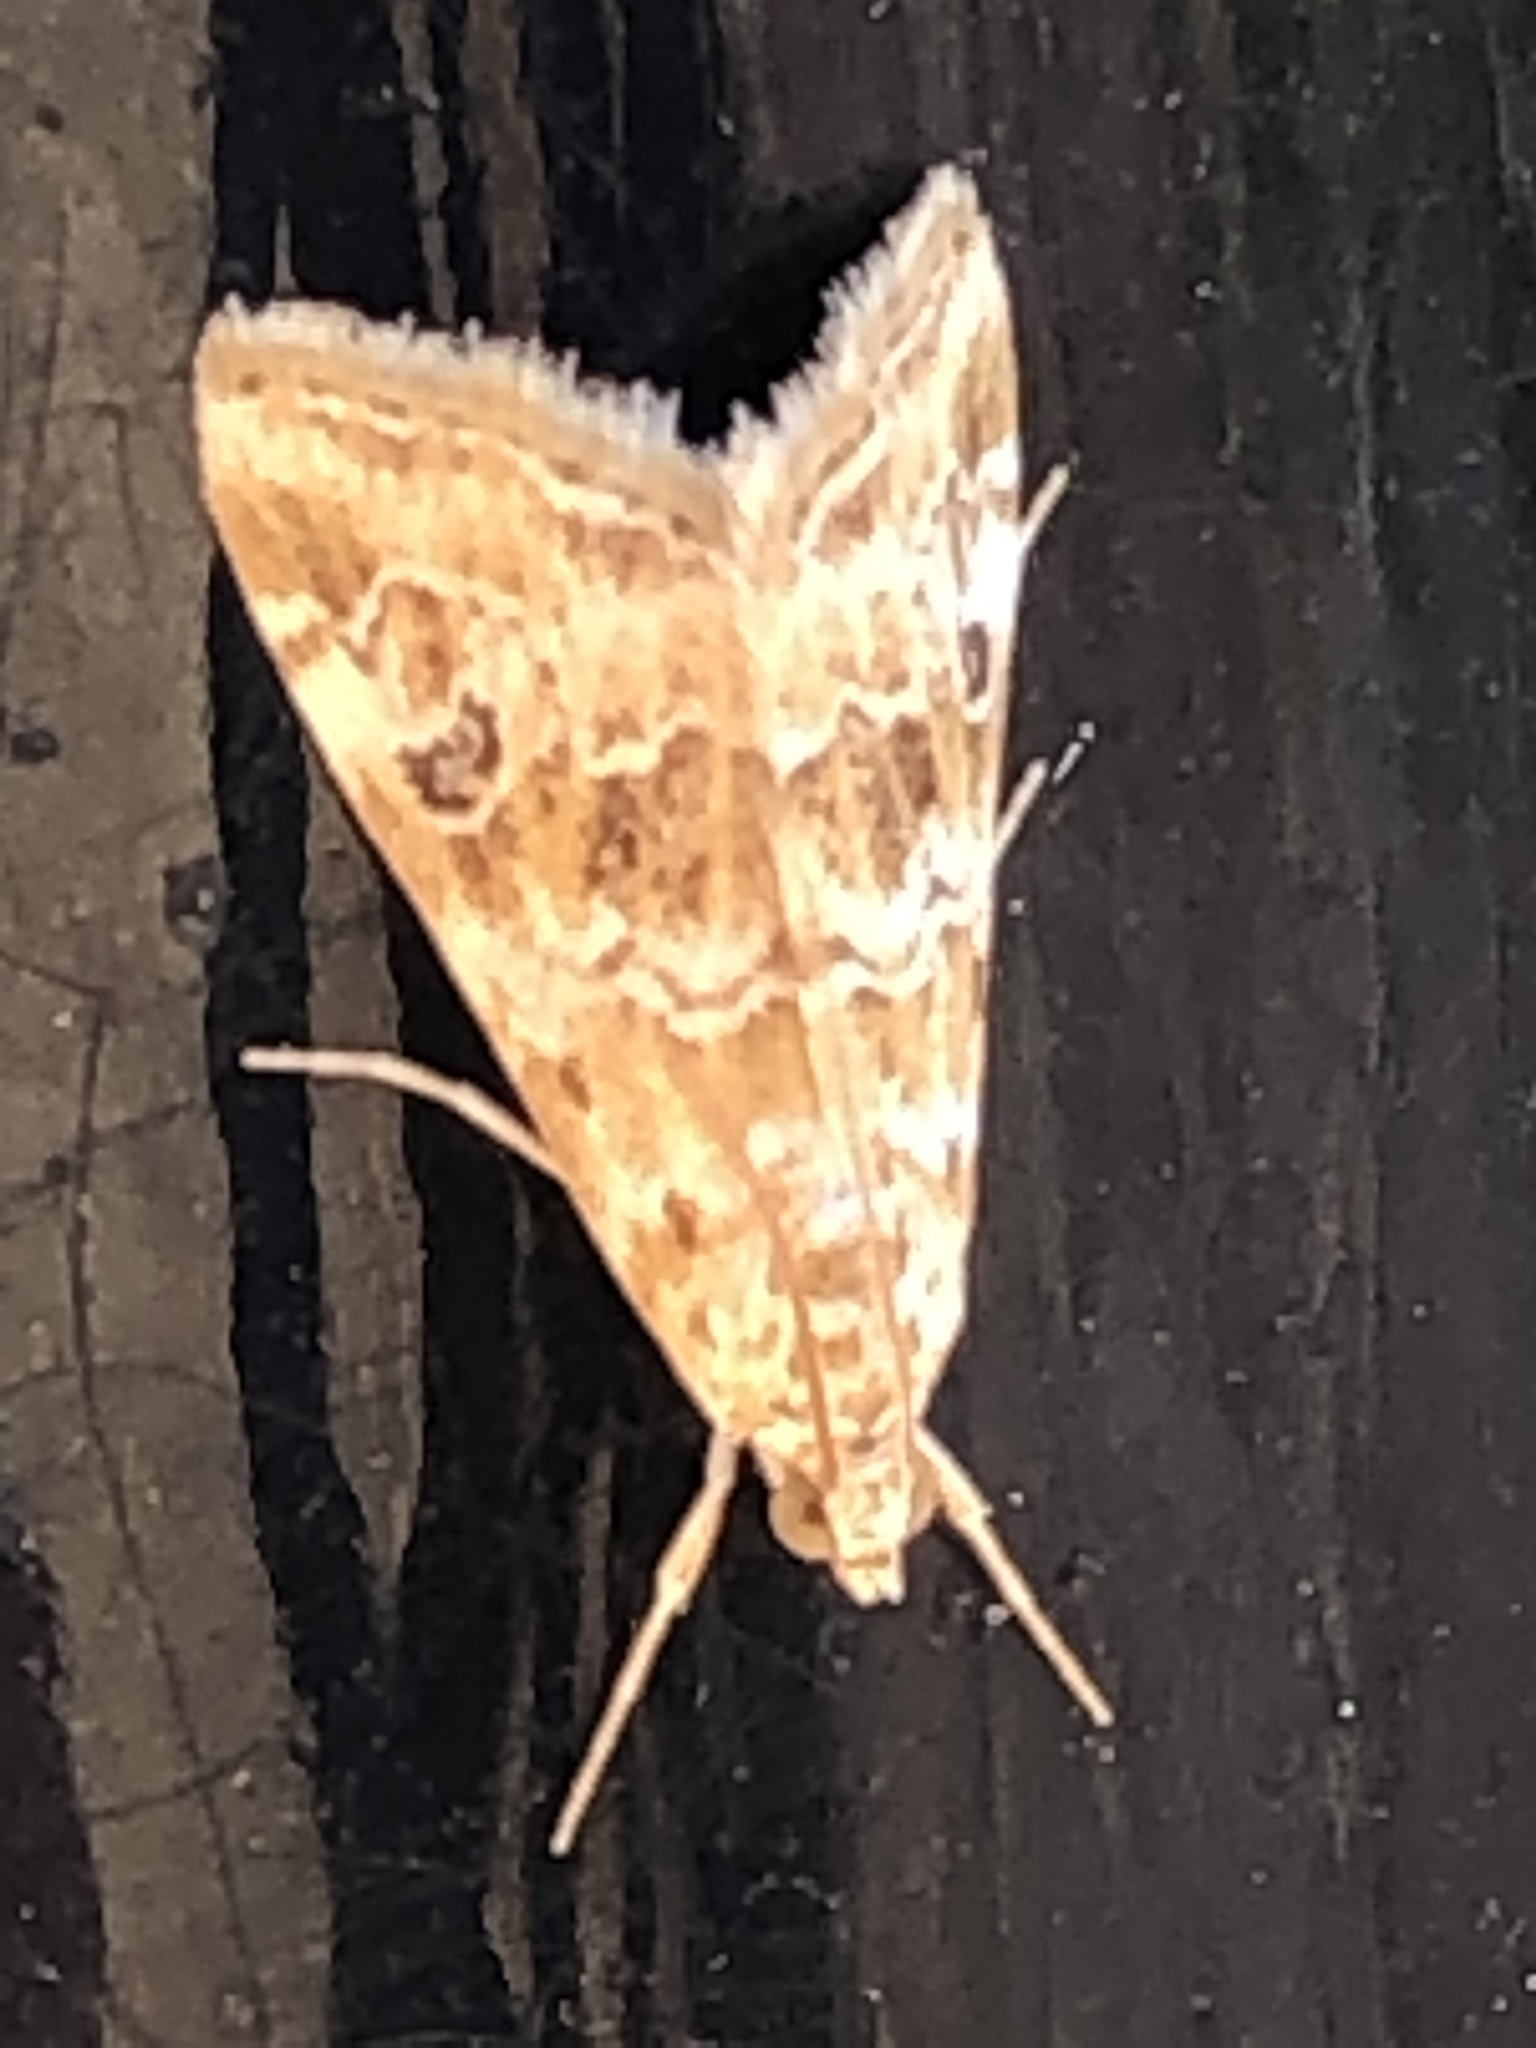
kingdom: Animalia
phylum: Arthropoda
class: Insecta
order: Lepidoptera
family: Crambidae
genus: Hellula
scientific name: Hellula rogatalis
